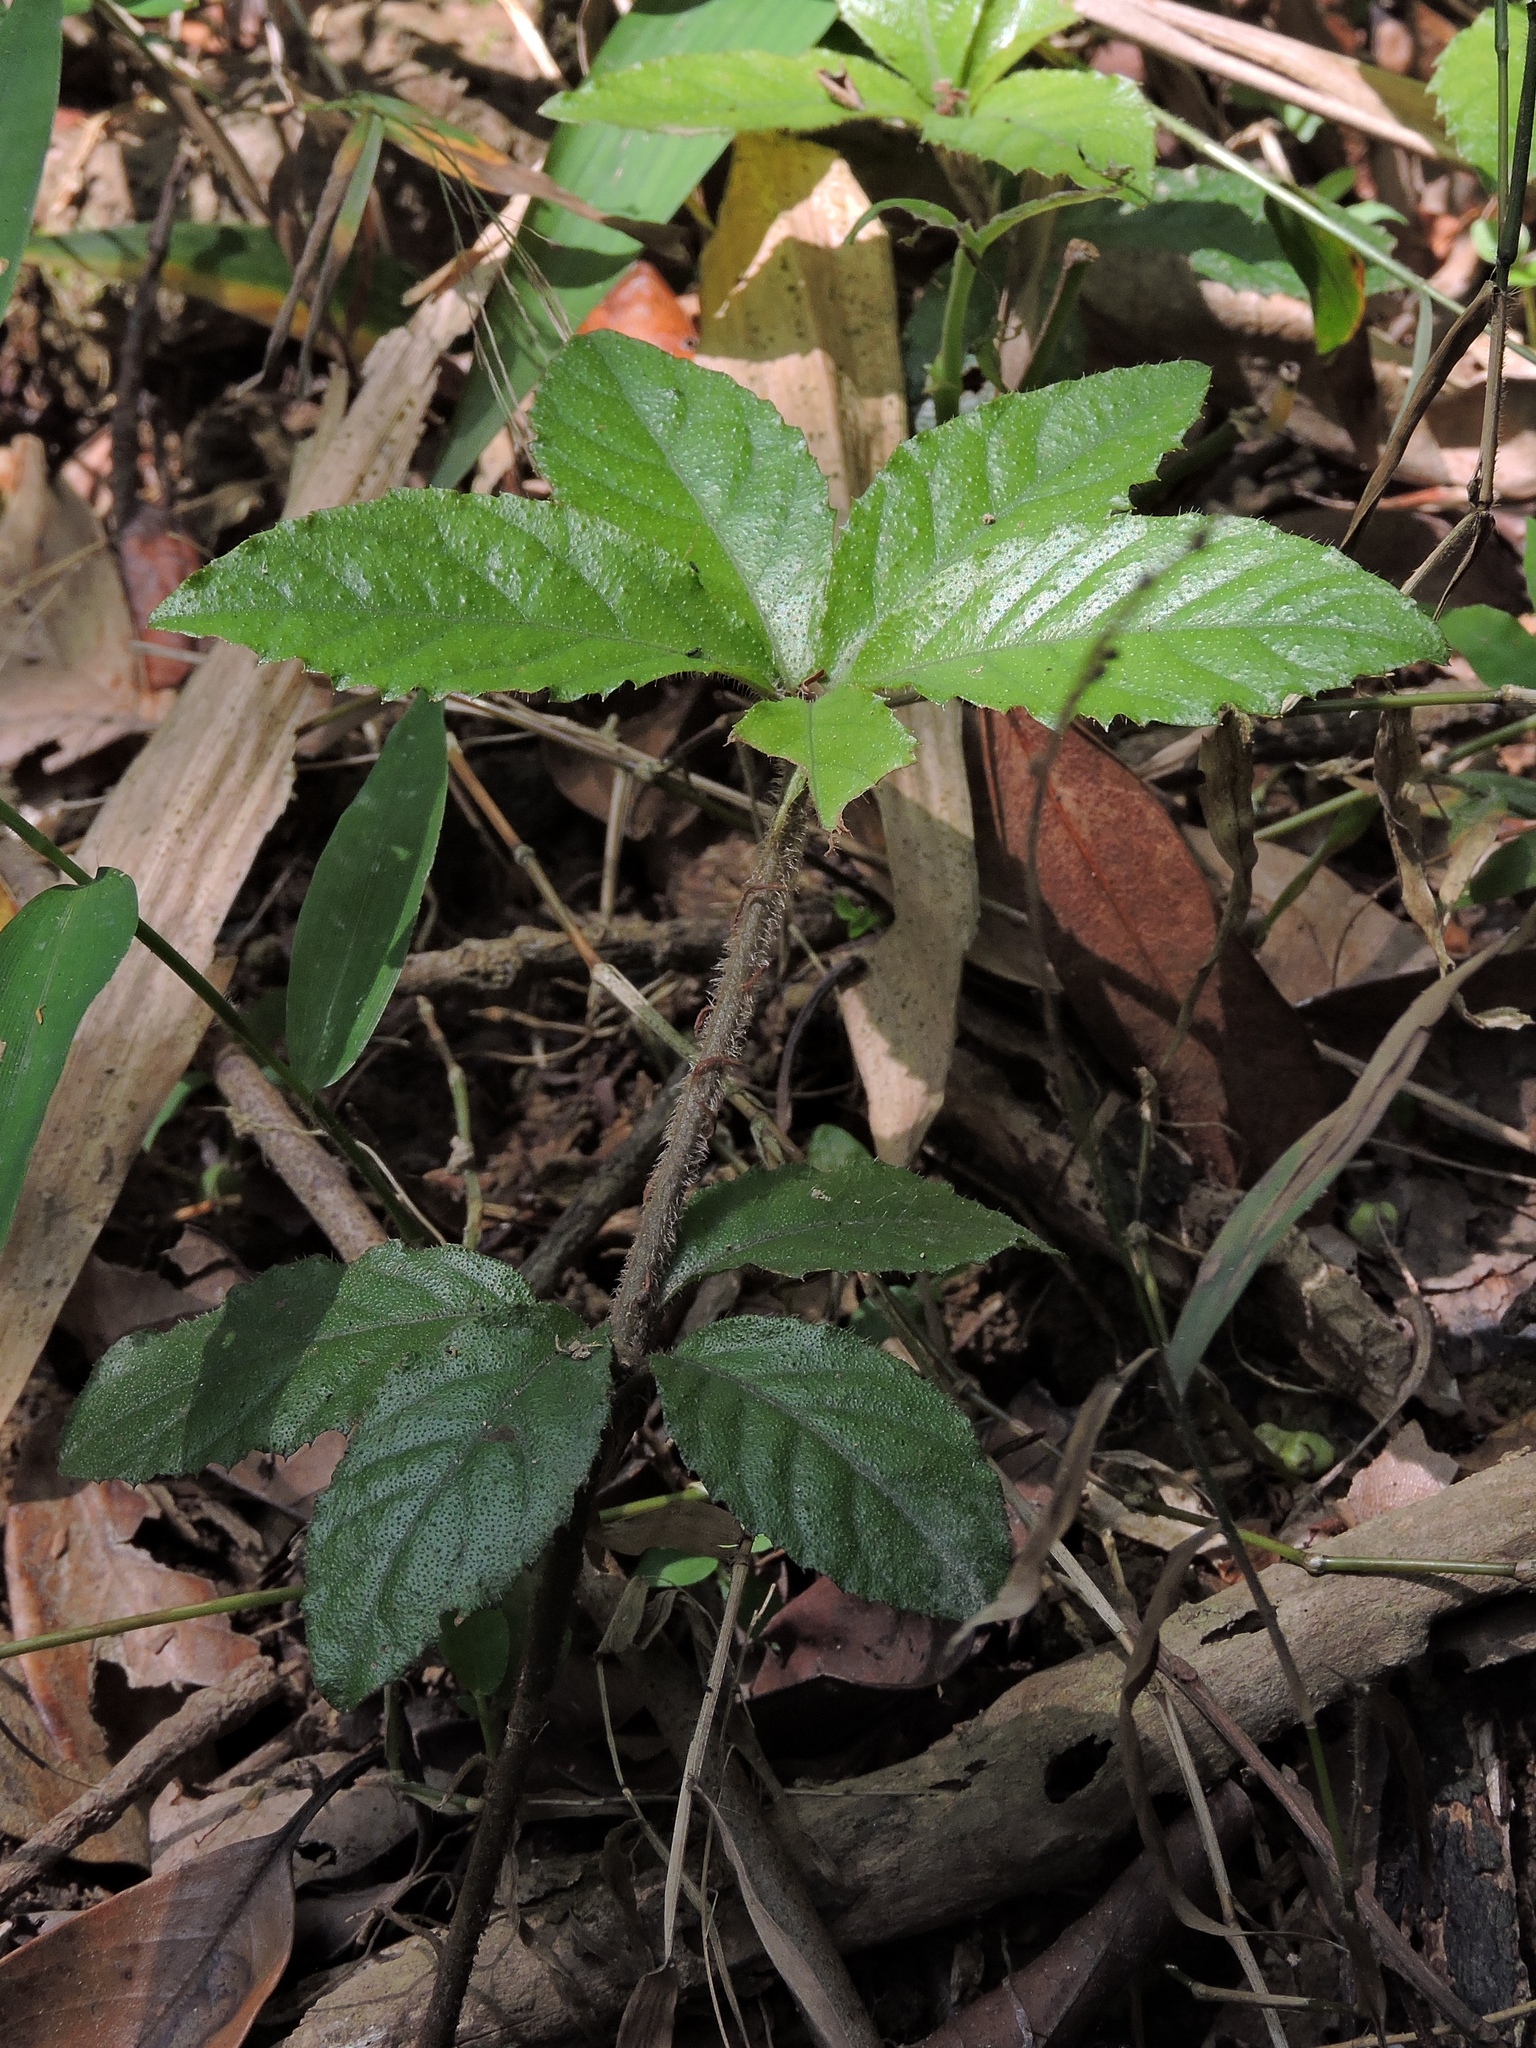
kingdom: Plantae
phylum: Tracheophyta
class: Magnoliopsida
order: Ericales
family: Primulaceae
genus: Ardisia
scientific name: Ardisia pusilla
